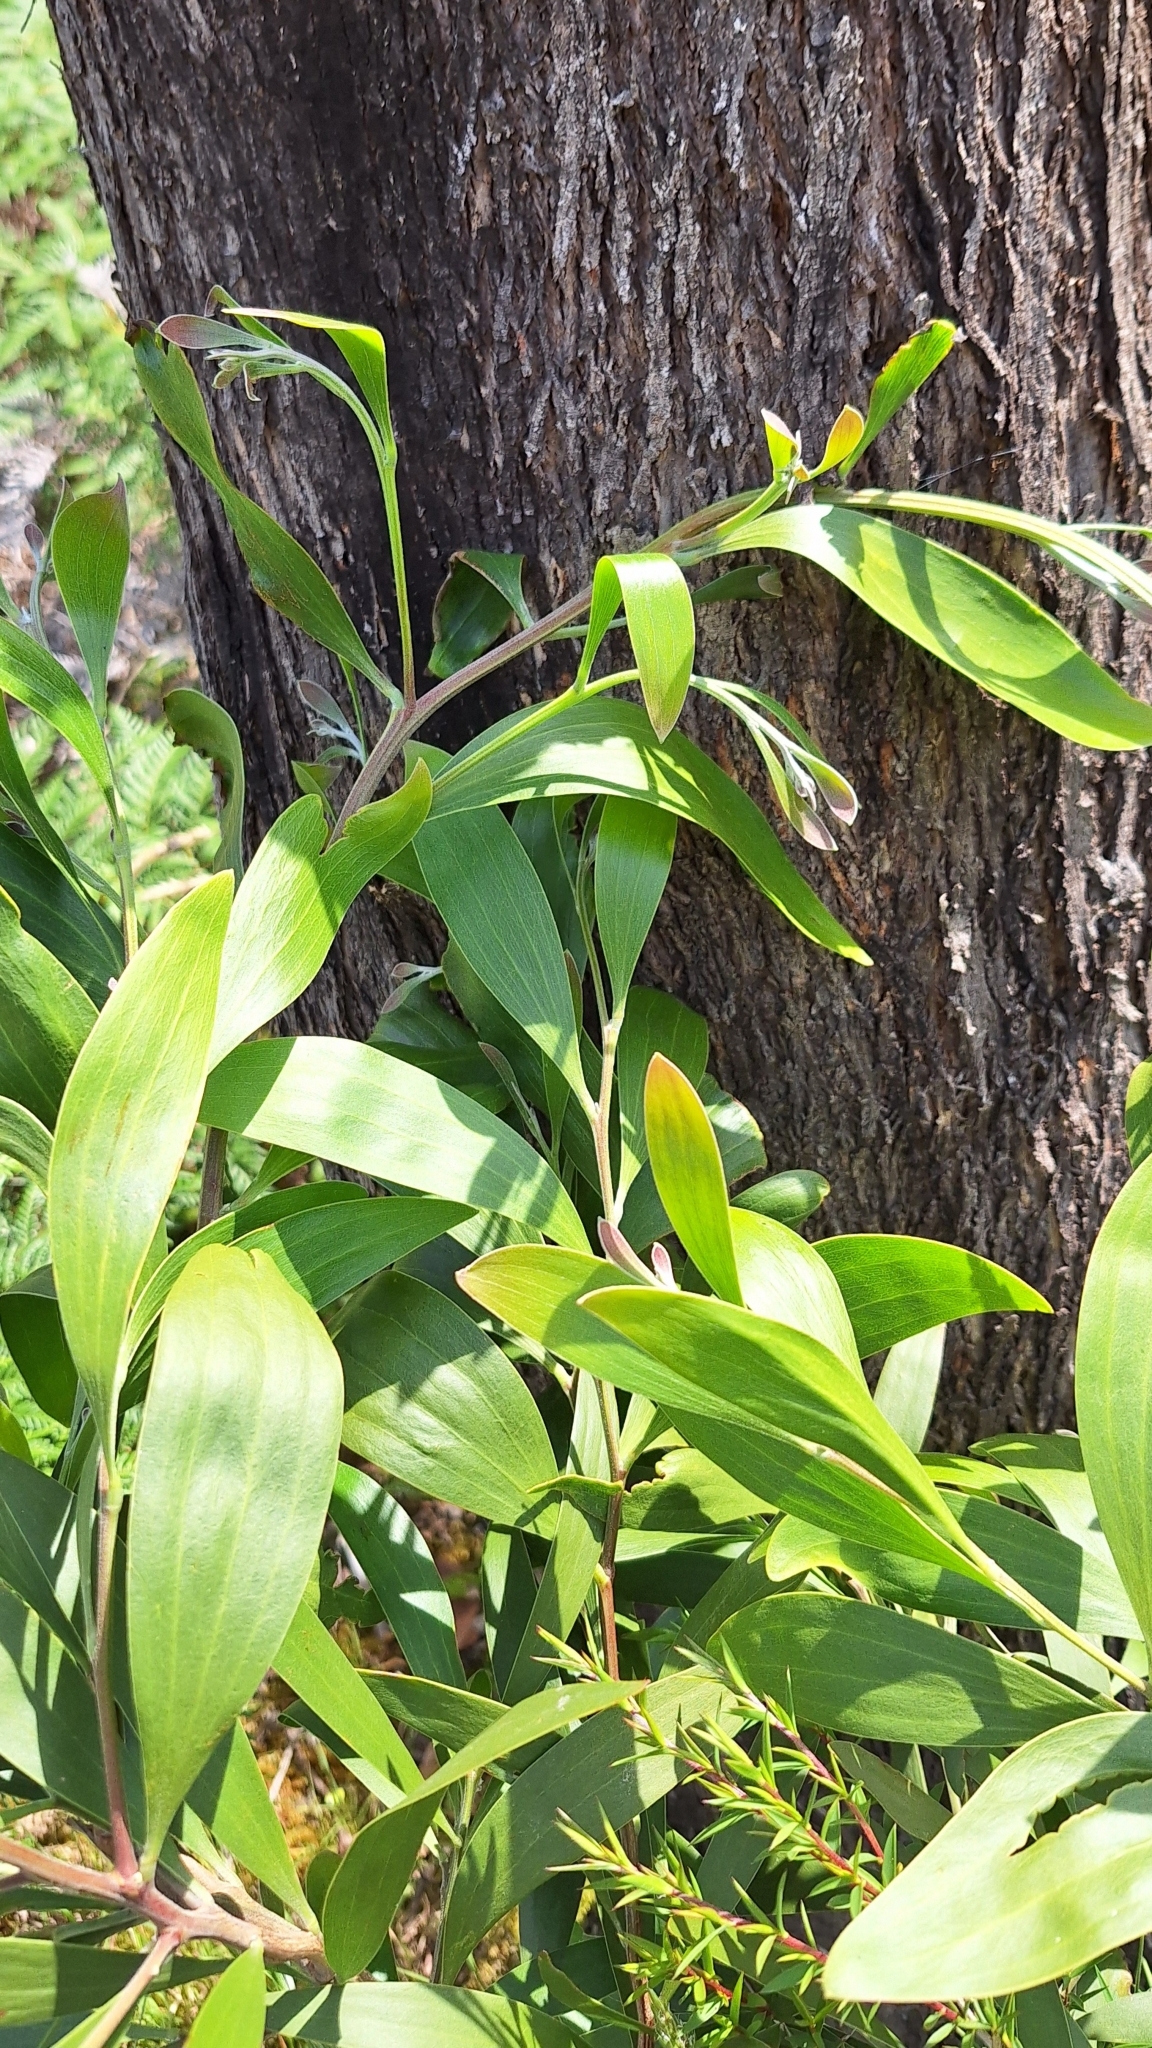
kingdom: Plantae
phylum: Tracheophyta
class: Magnoliopsida
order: Fabales
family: Fabaceae
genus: Acacia
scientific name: Acacia melanoxylon
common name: Blackwood
